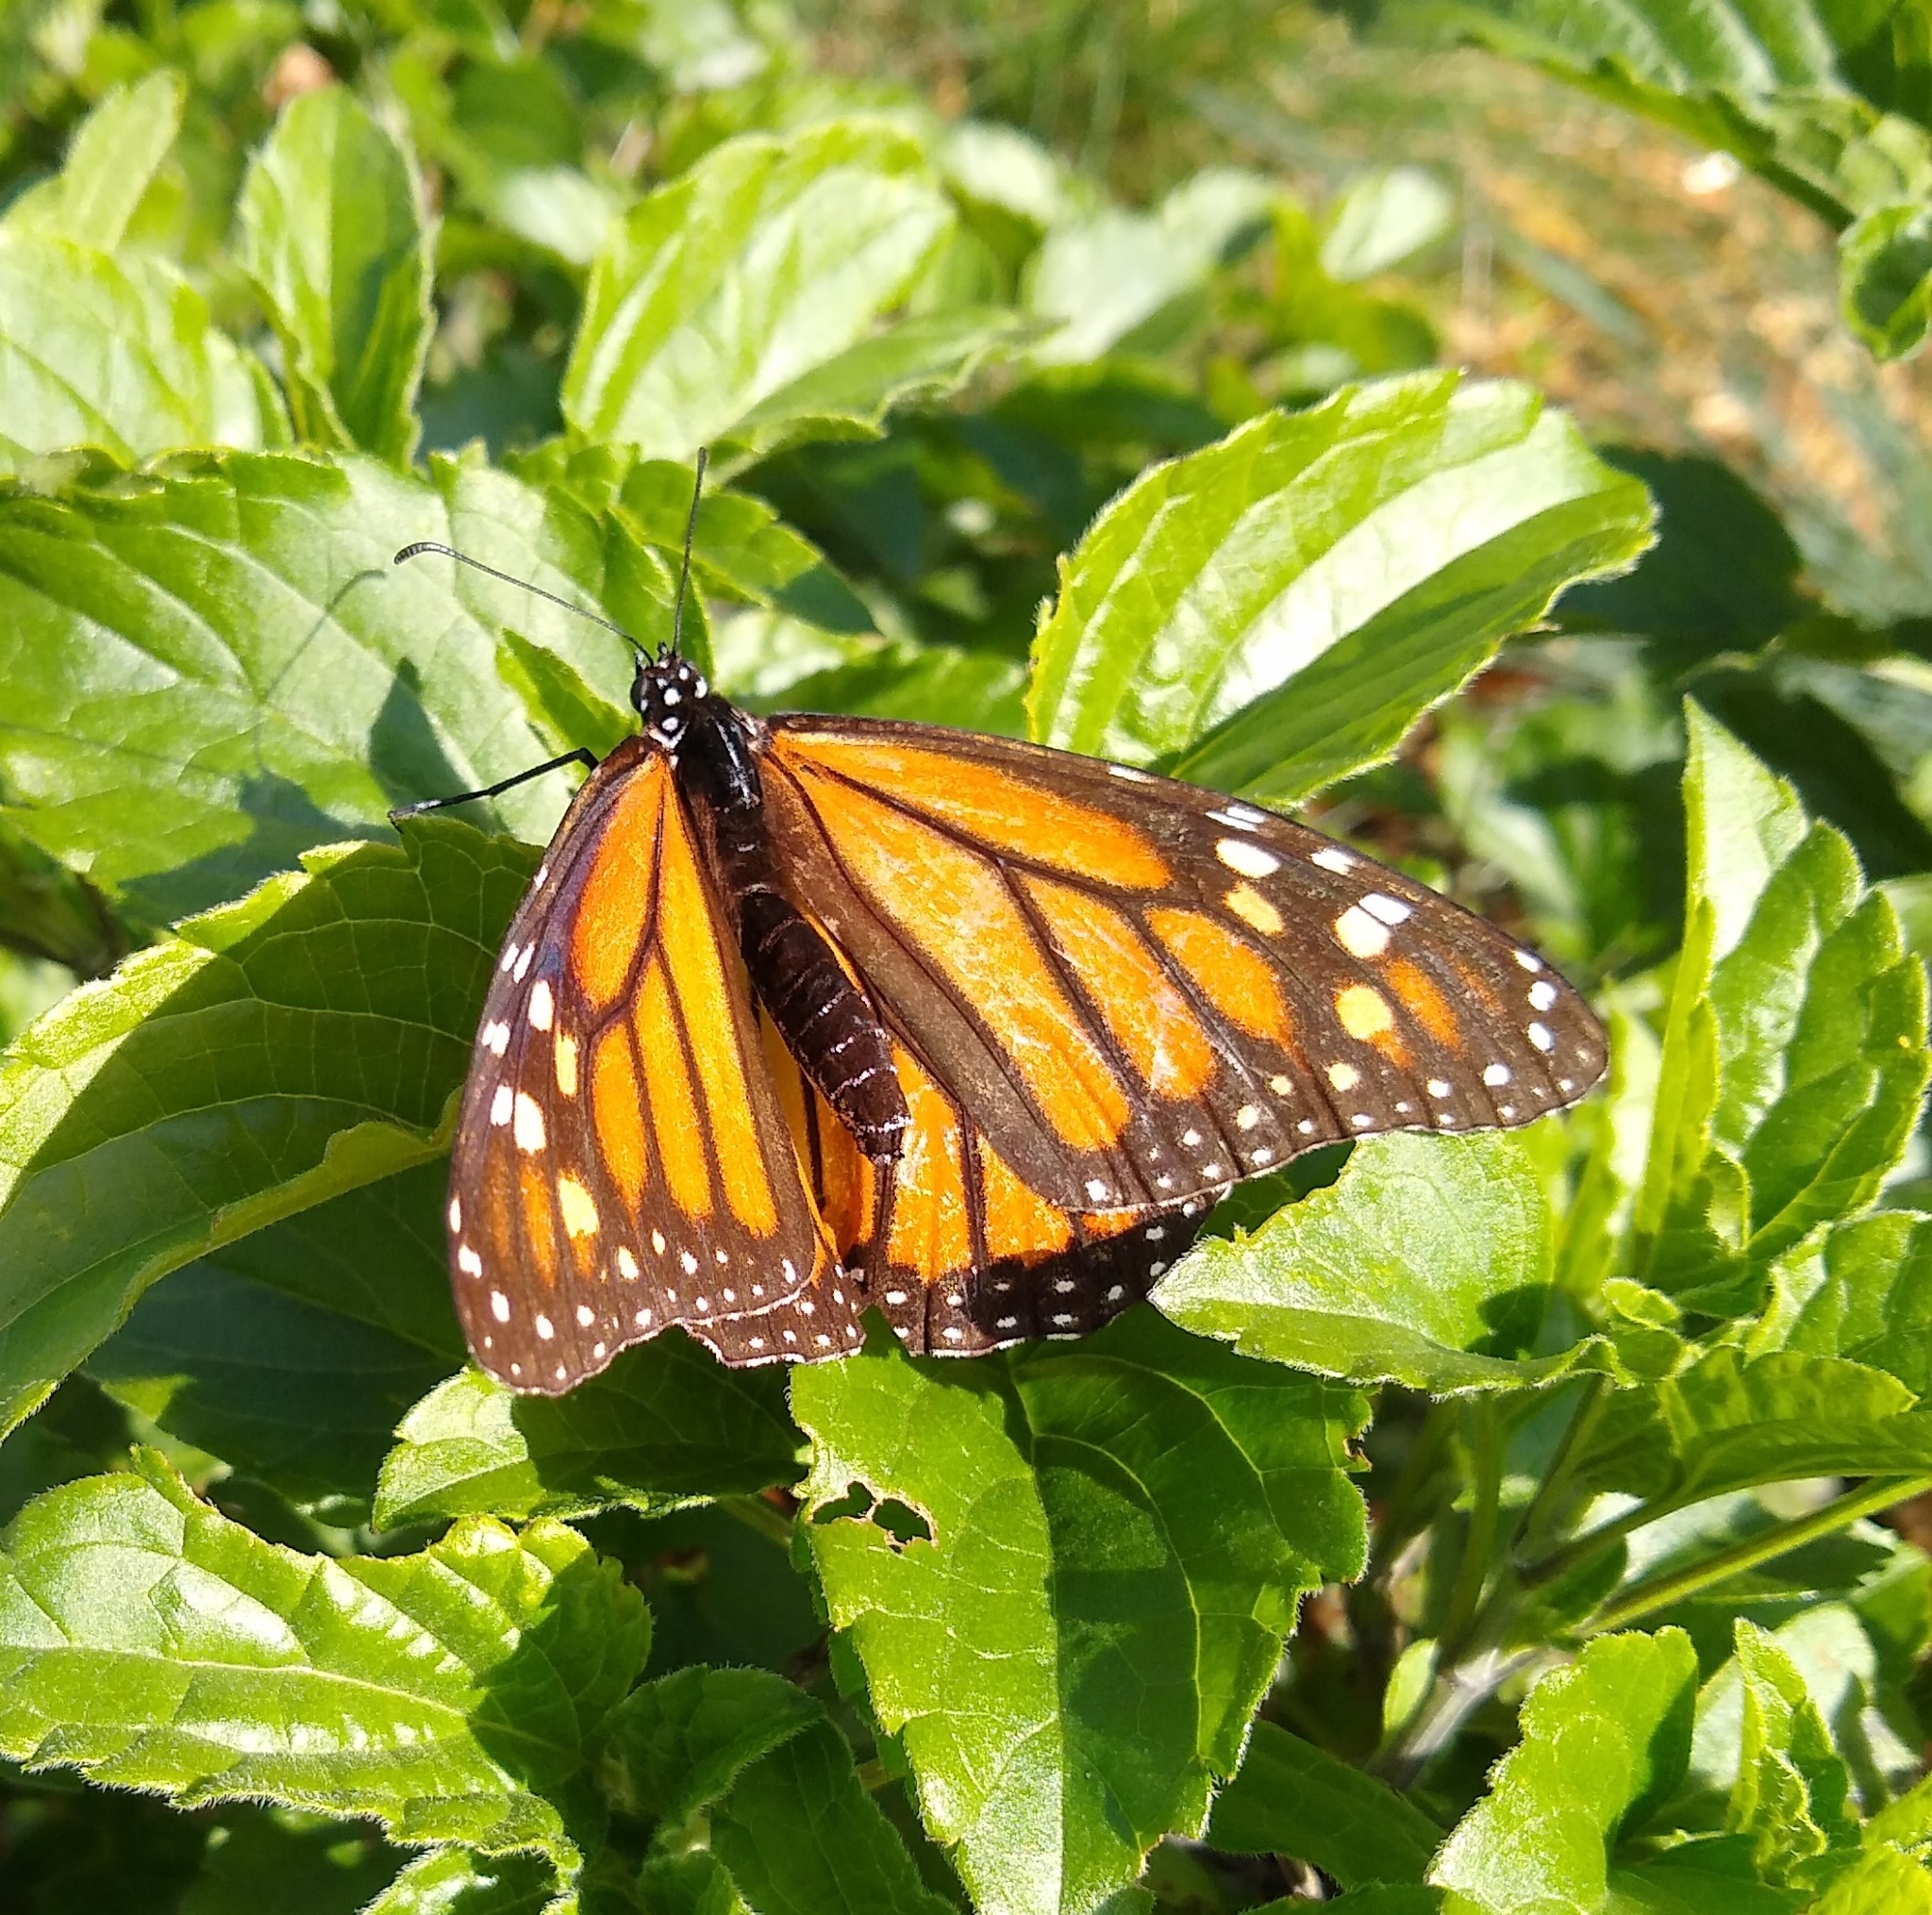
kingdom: Animalia
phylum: Arthropoda
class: Insecta
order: Lepidoptera
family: Nymphalidae
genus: Danaus
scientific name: Danaus plexippus
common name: Monarch
